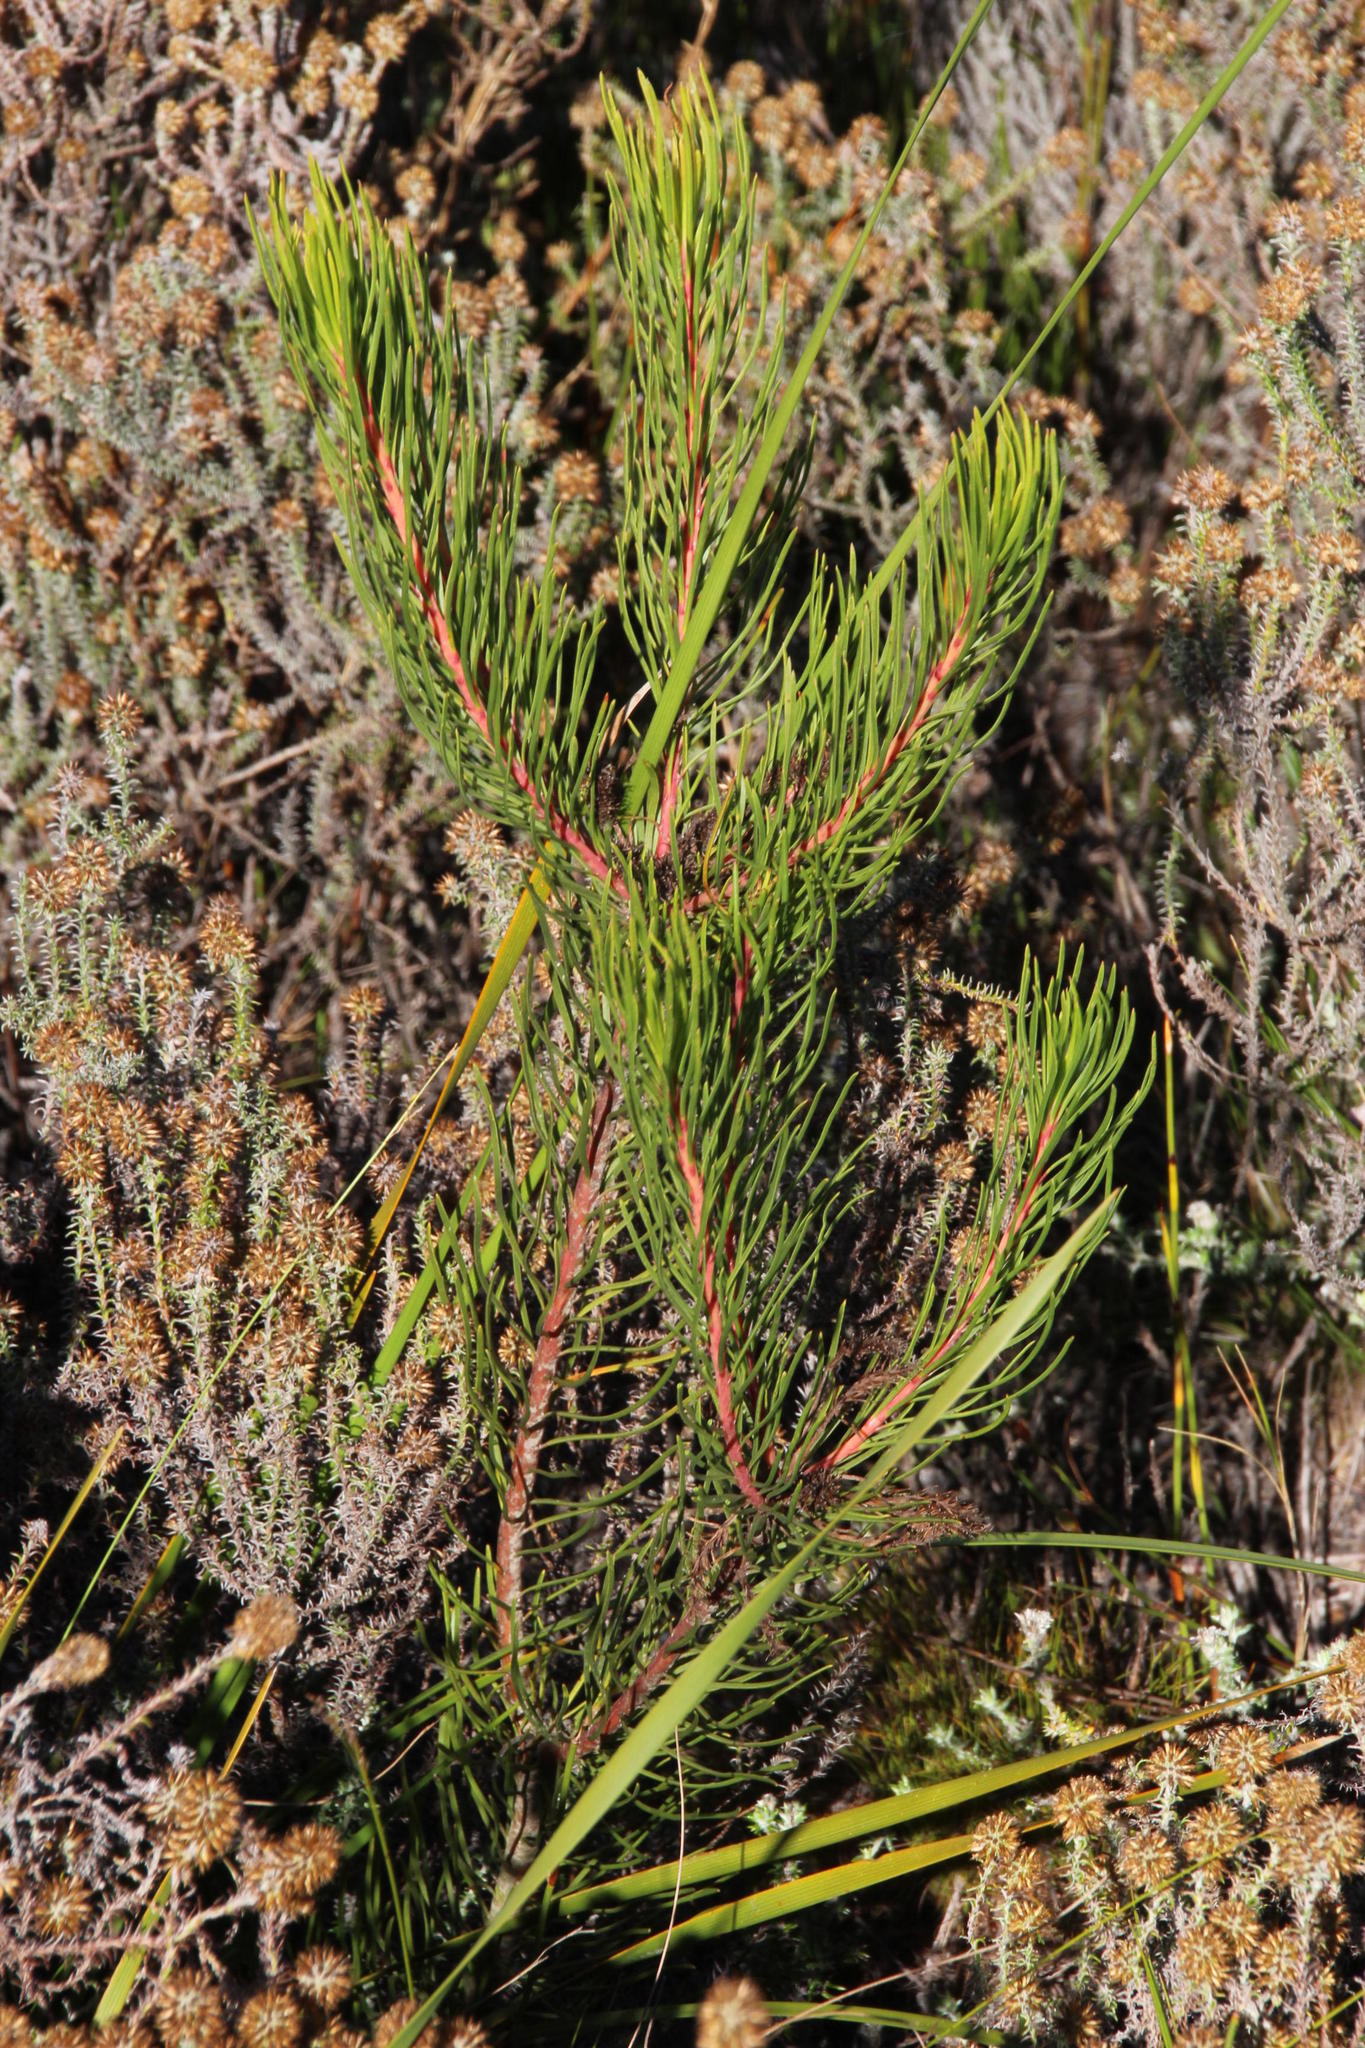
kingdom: Plantae
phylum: Tracheophyta
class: Magnoliopsida
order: Proteales
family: Proteaceae
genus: Aulax
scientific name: Aulax cancellata
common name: Channel-leaf featherbush
